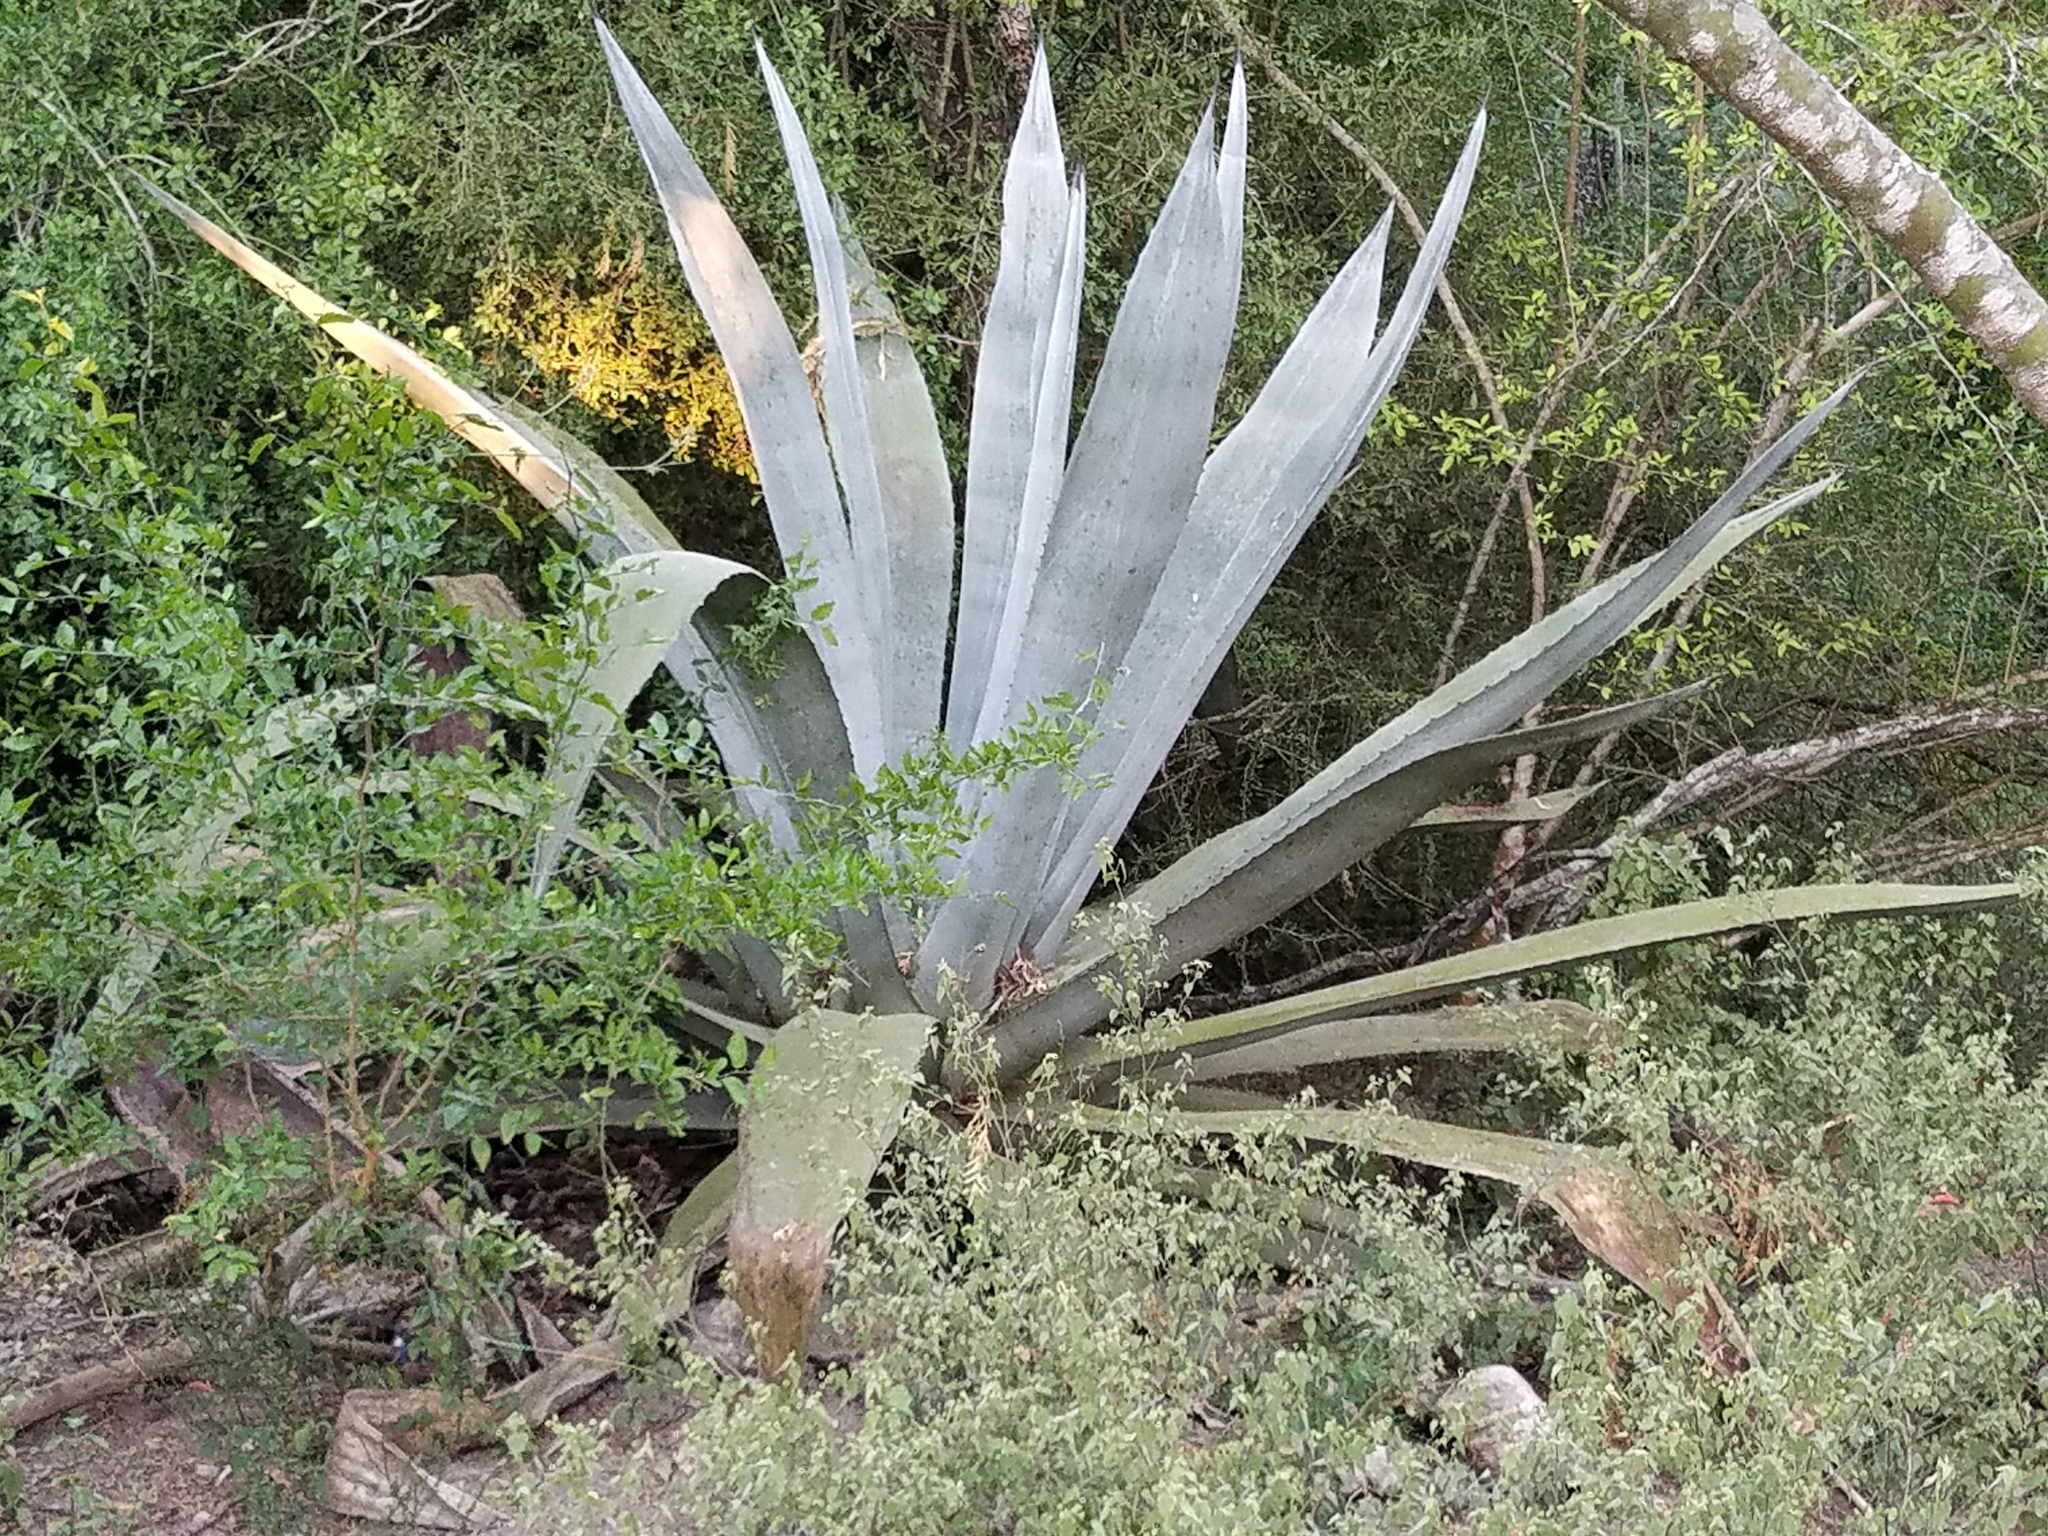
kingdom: Plantae
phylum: Tracheophyta
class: Liliopsida
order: Asparagales
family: Asparagaceae
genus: Agave
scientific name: Agave americana
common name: Centuryplant
